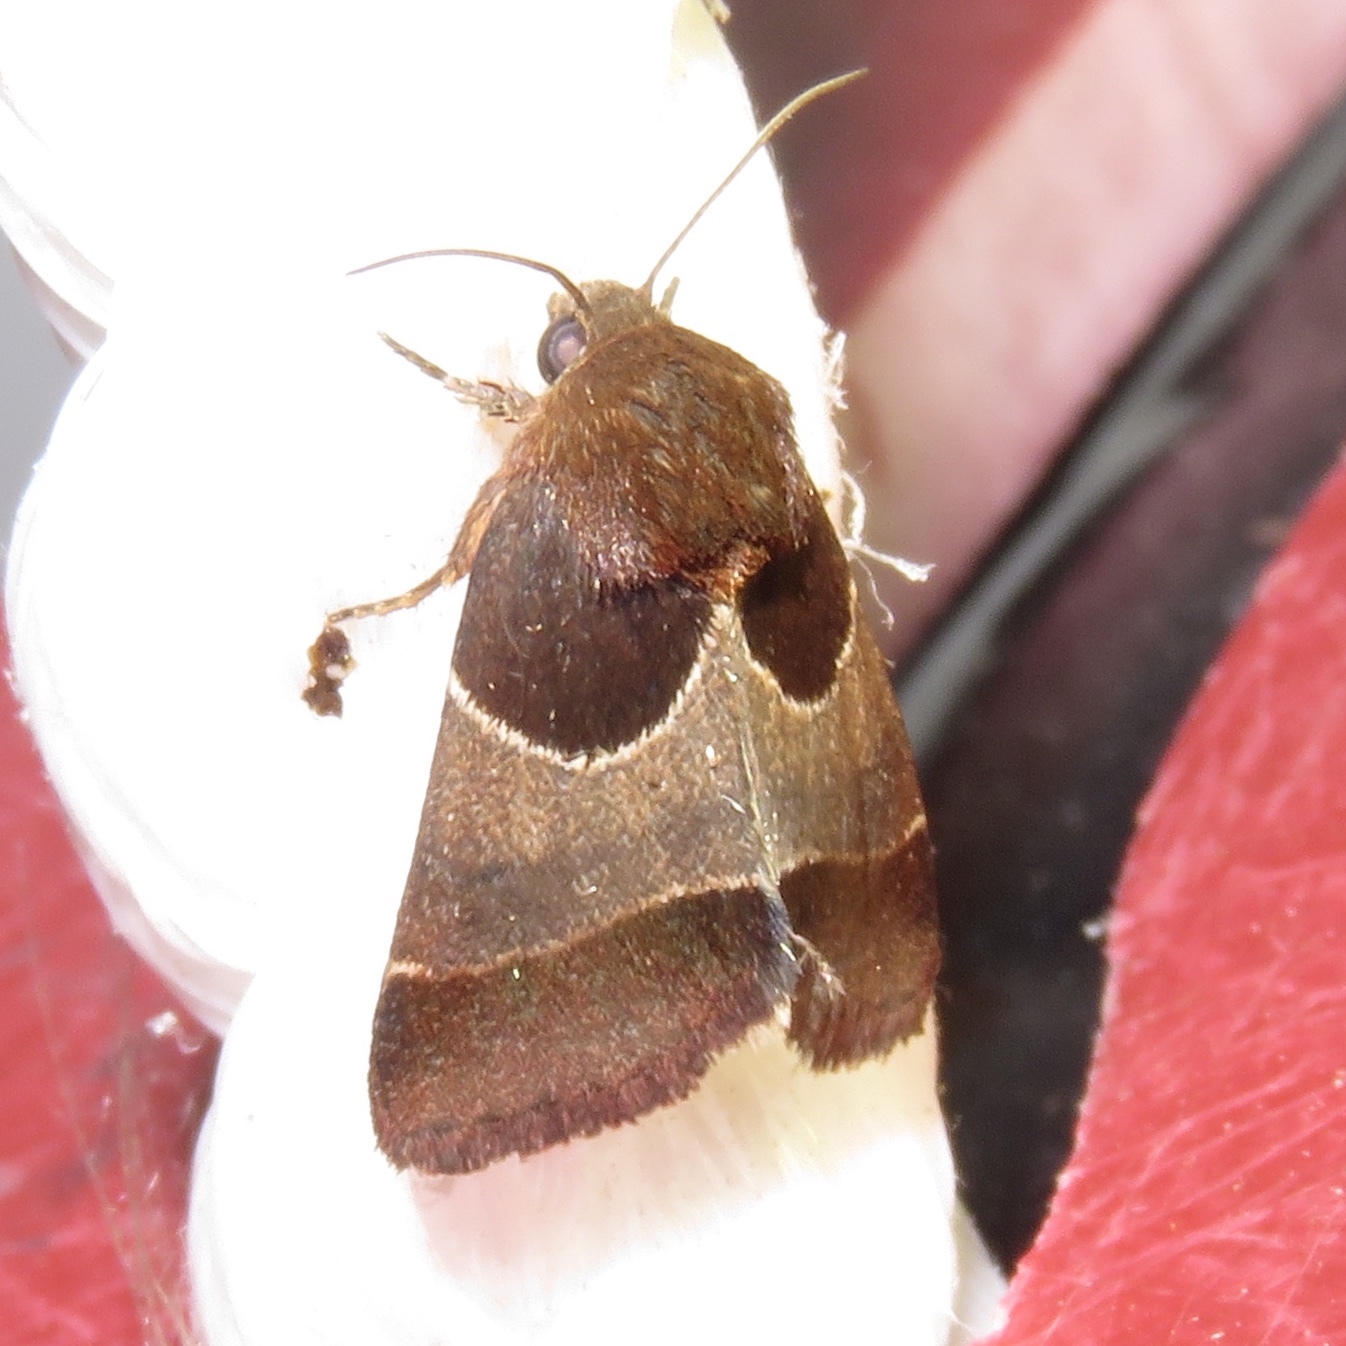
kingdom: Animalia
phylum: Arthropoda
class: Insecta
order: Lepidoptera
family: Noctuidae
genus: Schinia
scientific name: Schinia arcigera
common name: Arcigera flower moth
